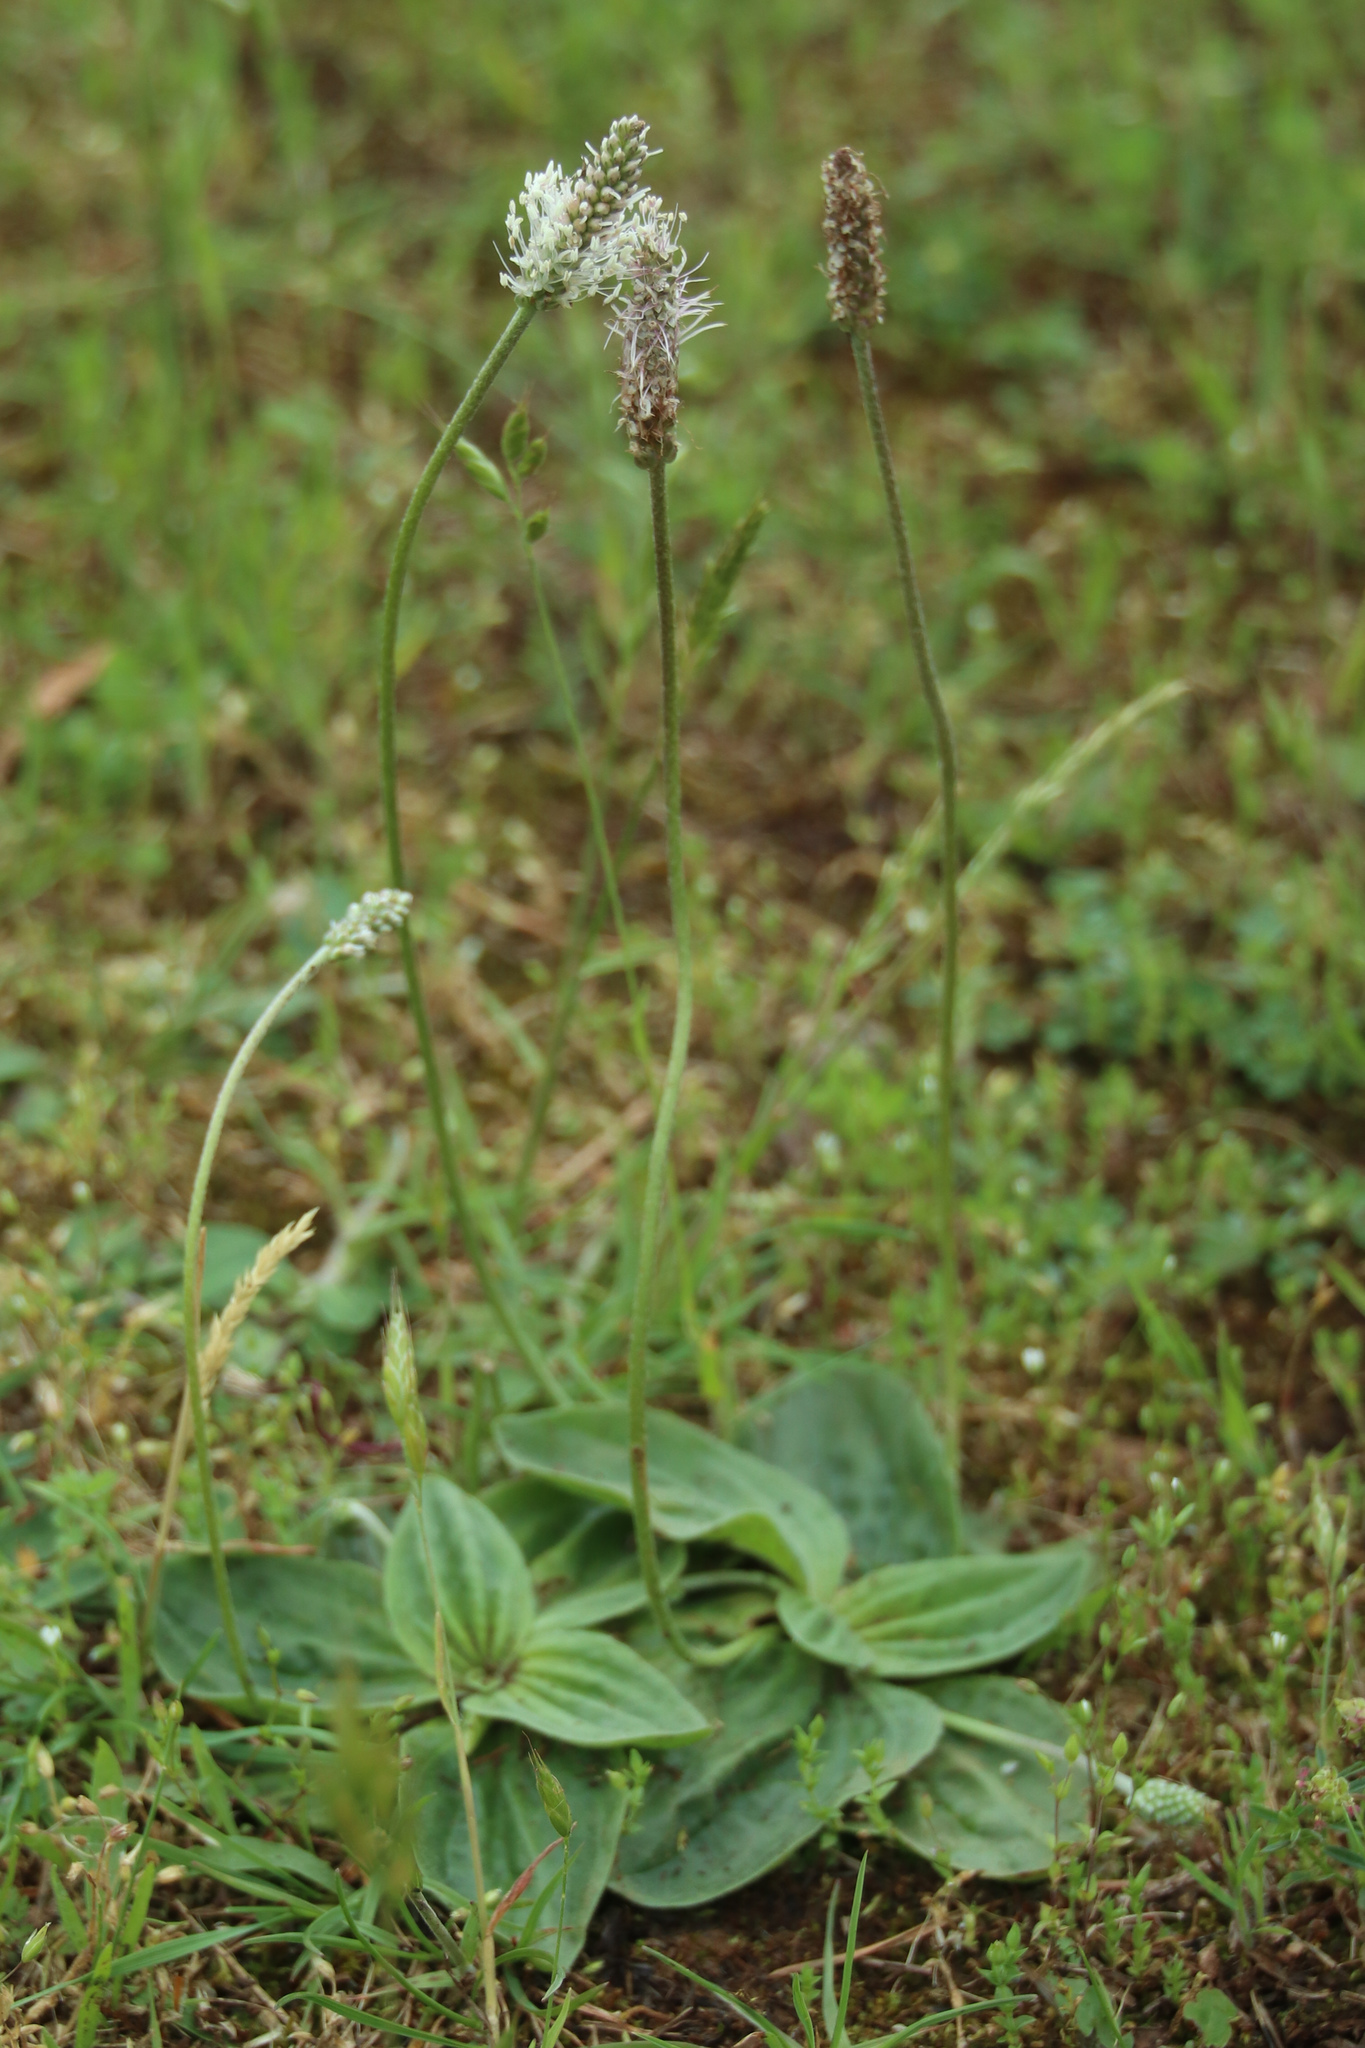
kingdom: Plantae
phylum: Tracheophyta
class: Magnoliopsida
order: Lamiales
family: Plantaginaceae
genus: Plantago
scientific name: Plantago media
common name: Hoary plantain
